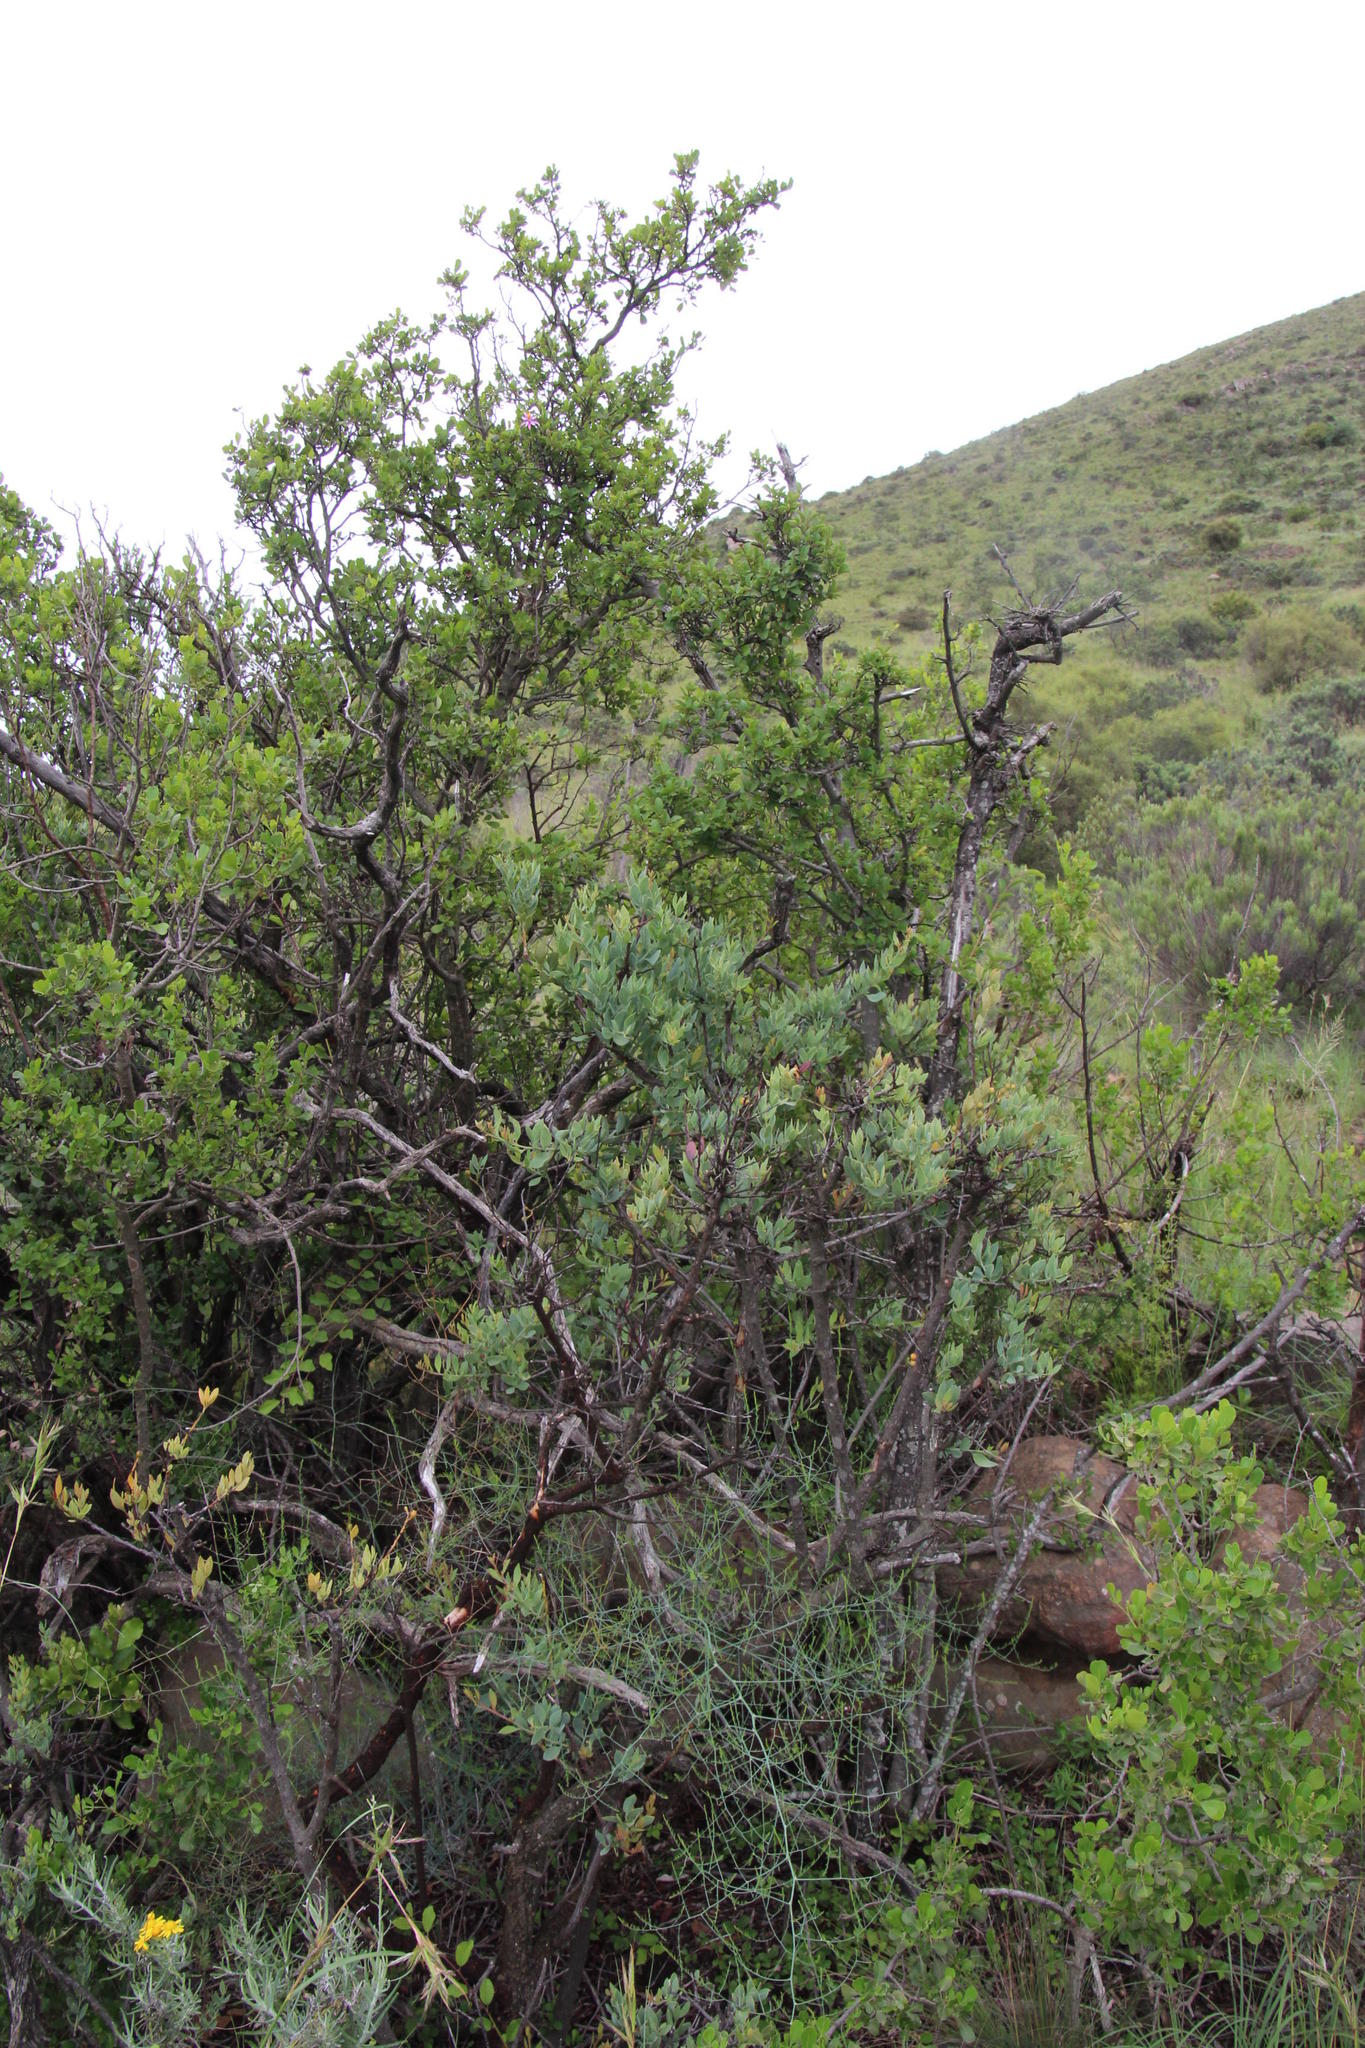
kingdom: Plantae
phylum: Tracheophyta
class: Magnoliopsida
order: Malvales
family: Malvaceae
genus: Grewia
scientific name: Grewia occidentalis
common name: Crossberry
